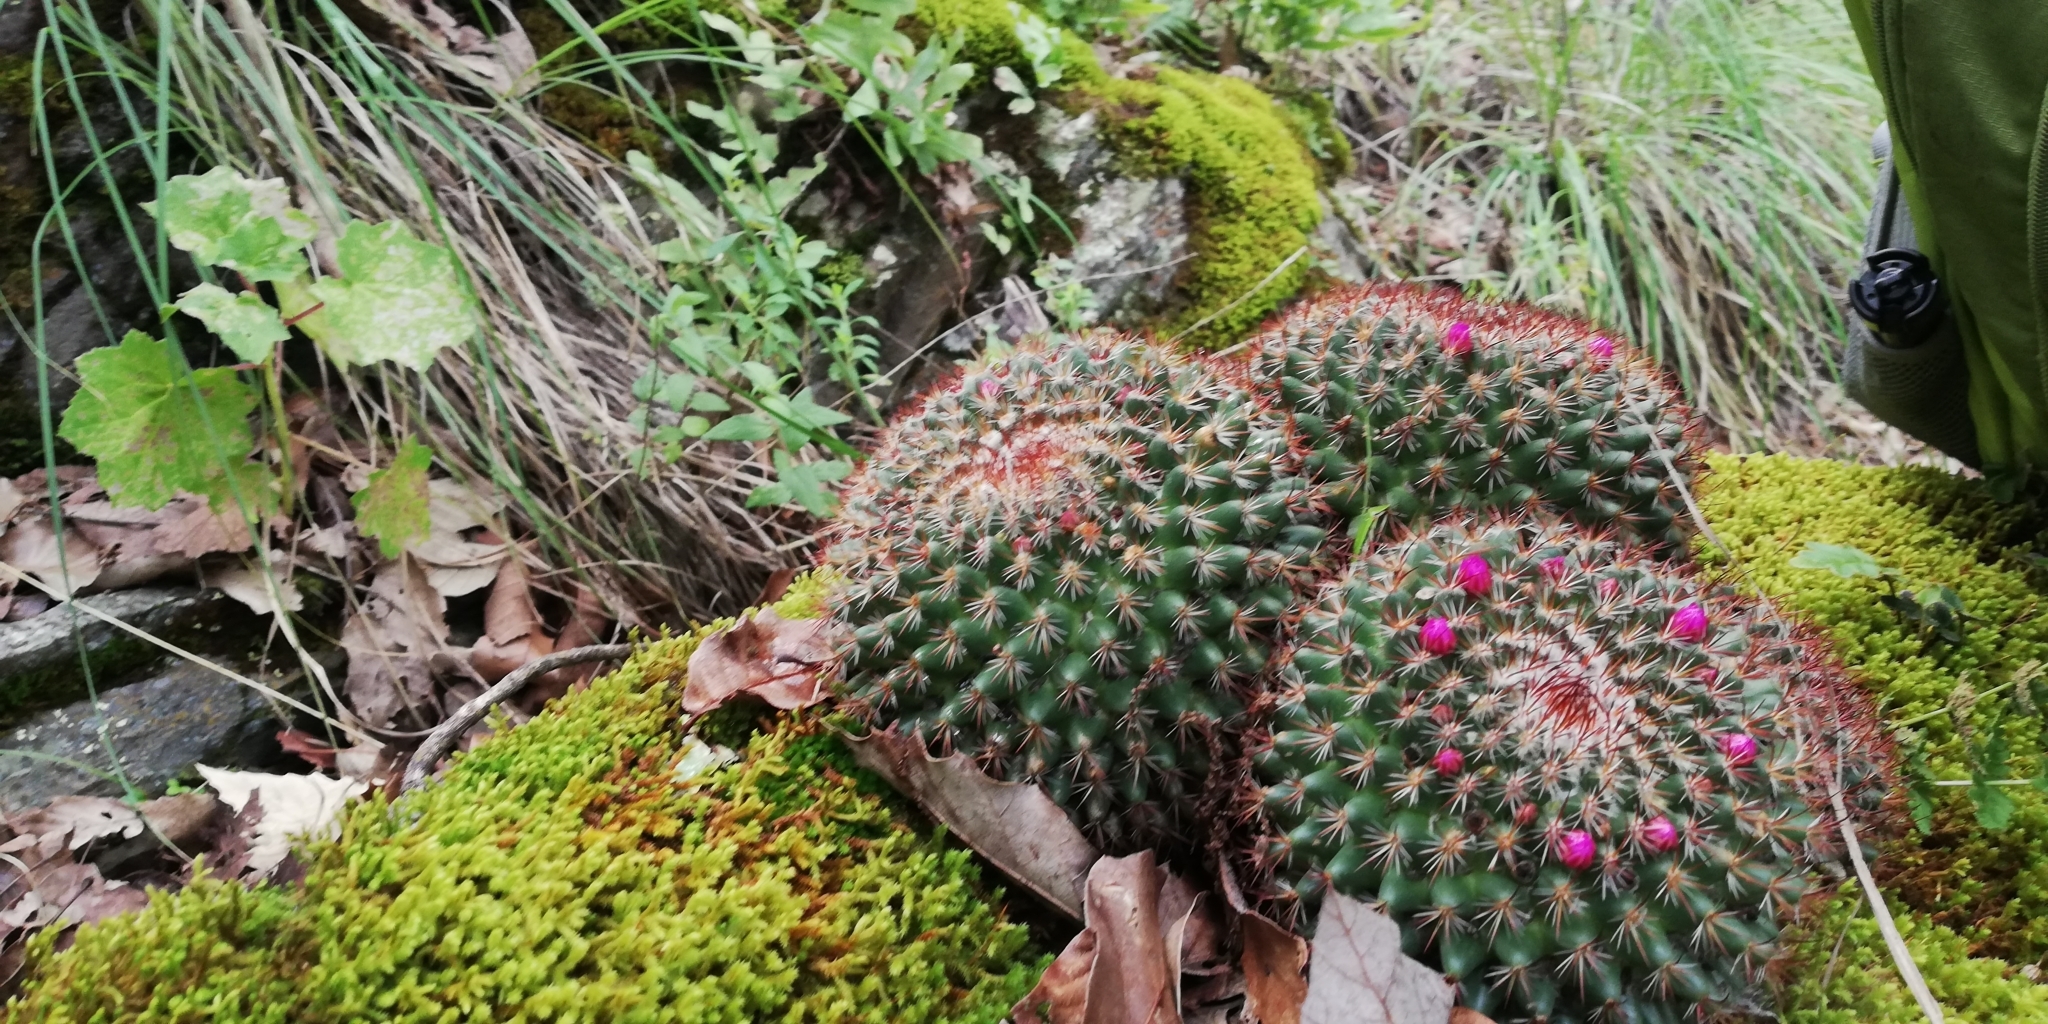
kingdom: Plantae
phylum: Tracheophyta
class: Magnoliopsida
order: Caryophyllales
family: Cactaceae
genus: Mammillaria
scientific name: Mammillaria rhodantha
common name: Rainbow pincushion
